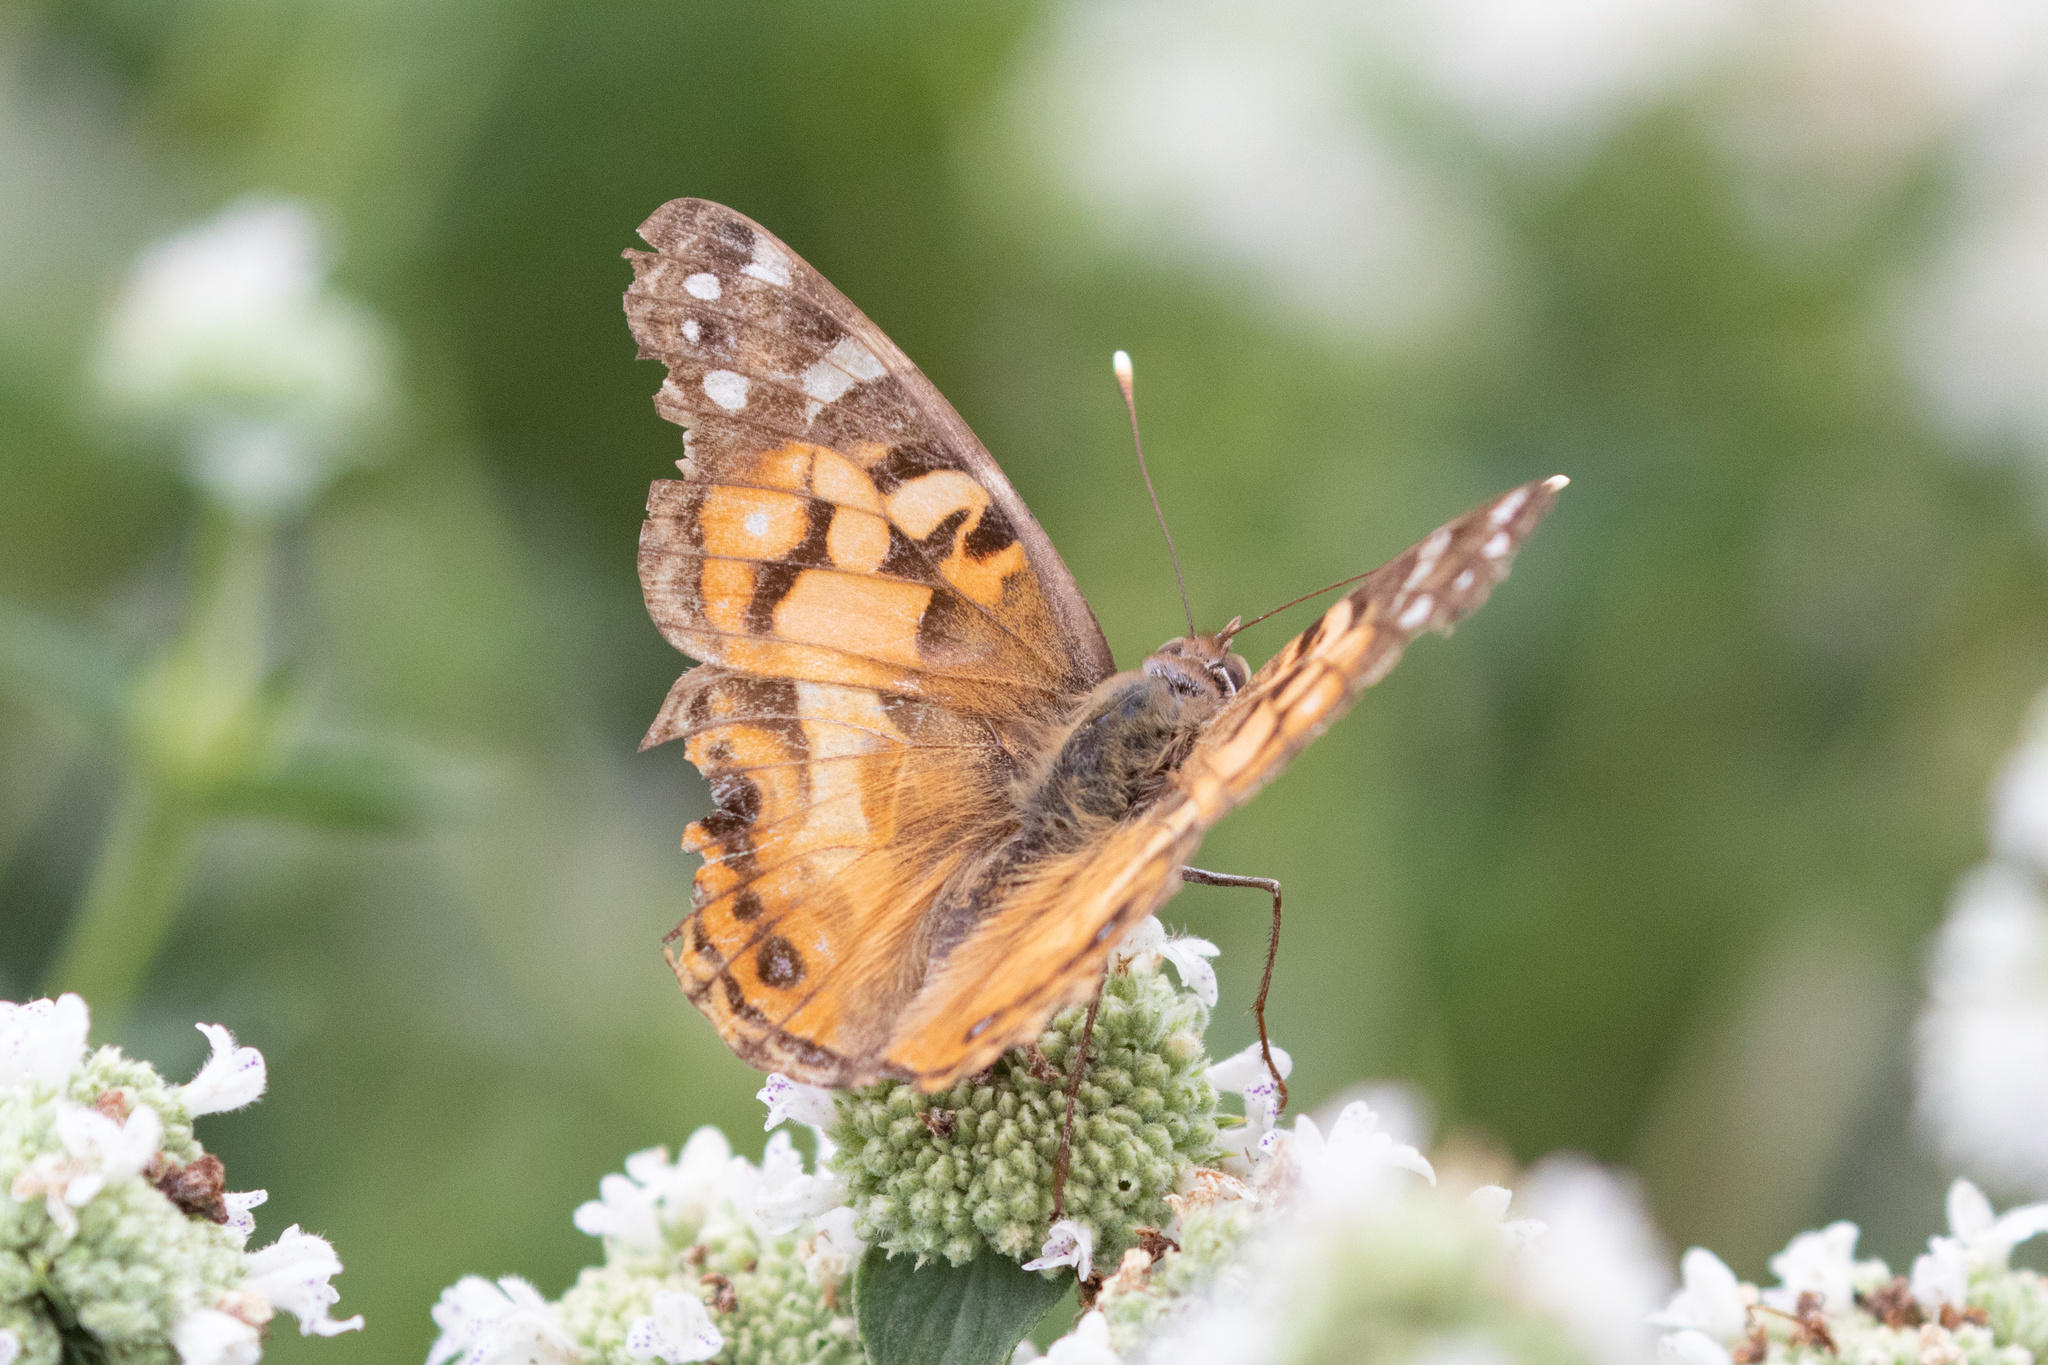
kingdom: Animalia
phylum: Arthropoda
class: Insecta
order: Lepidoptera
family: Nymphalidae
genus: Vanessa
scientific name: Vanessa virginiensis
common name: American lady
